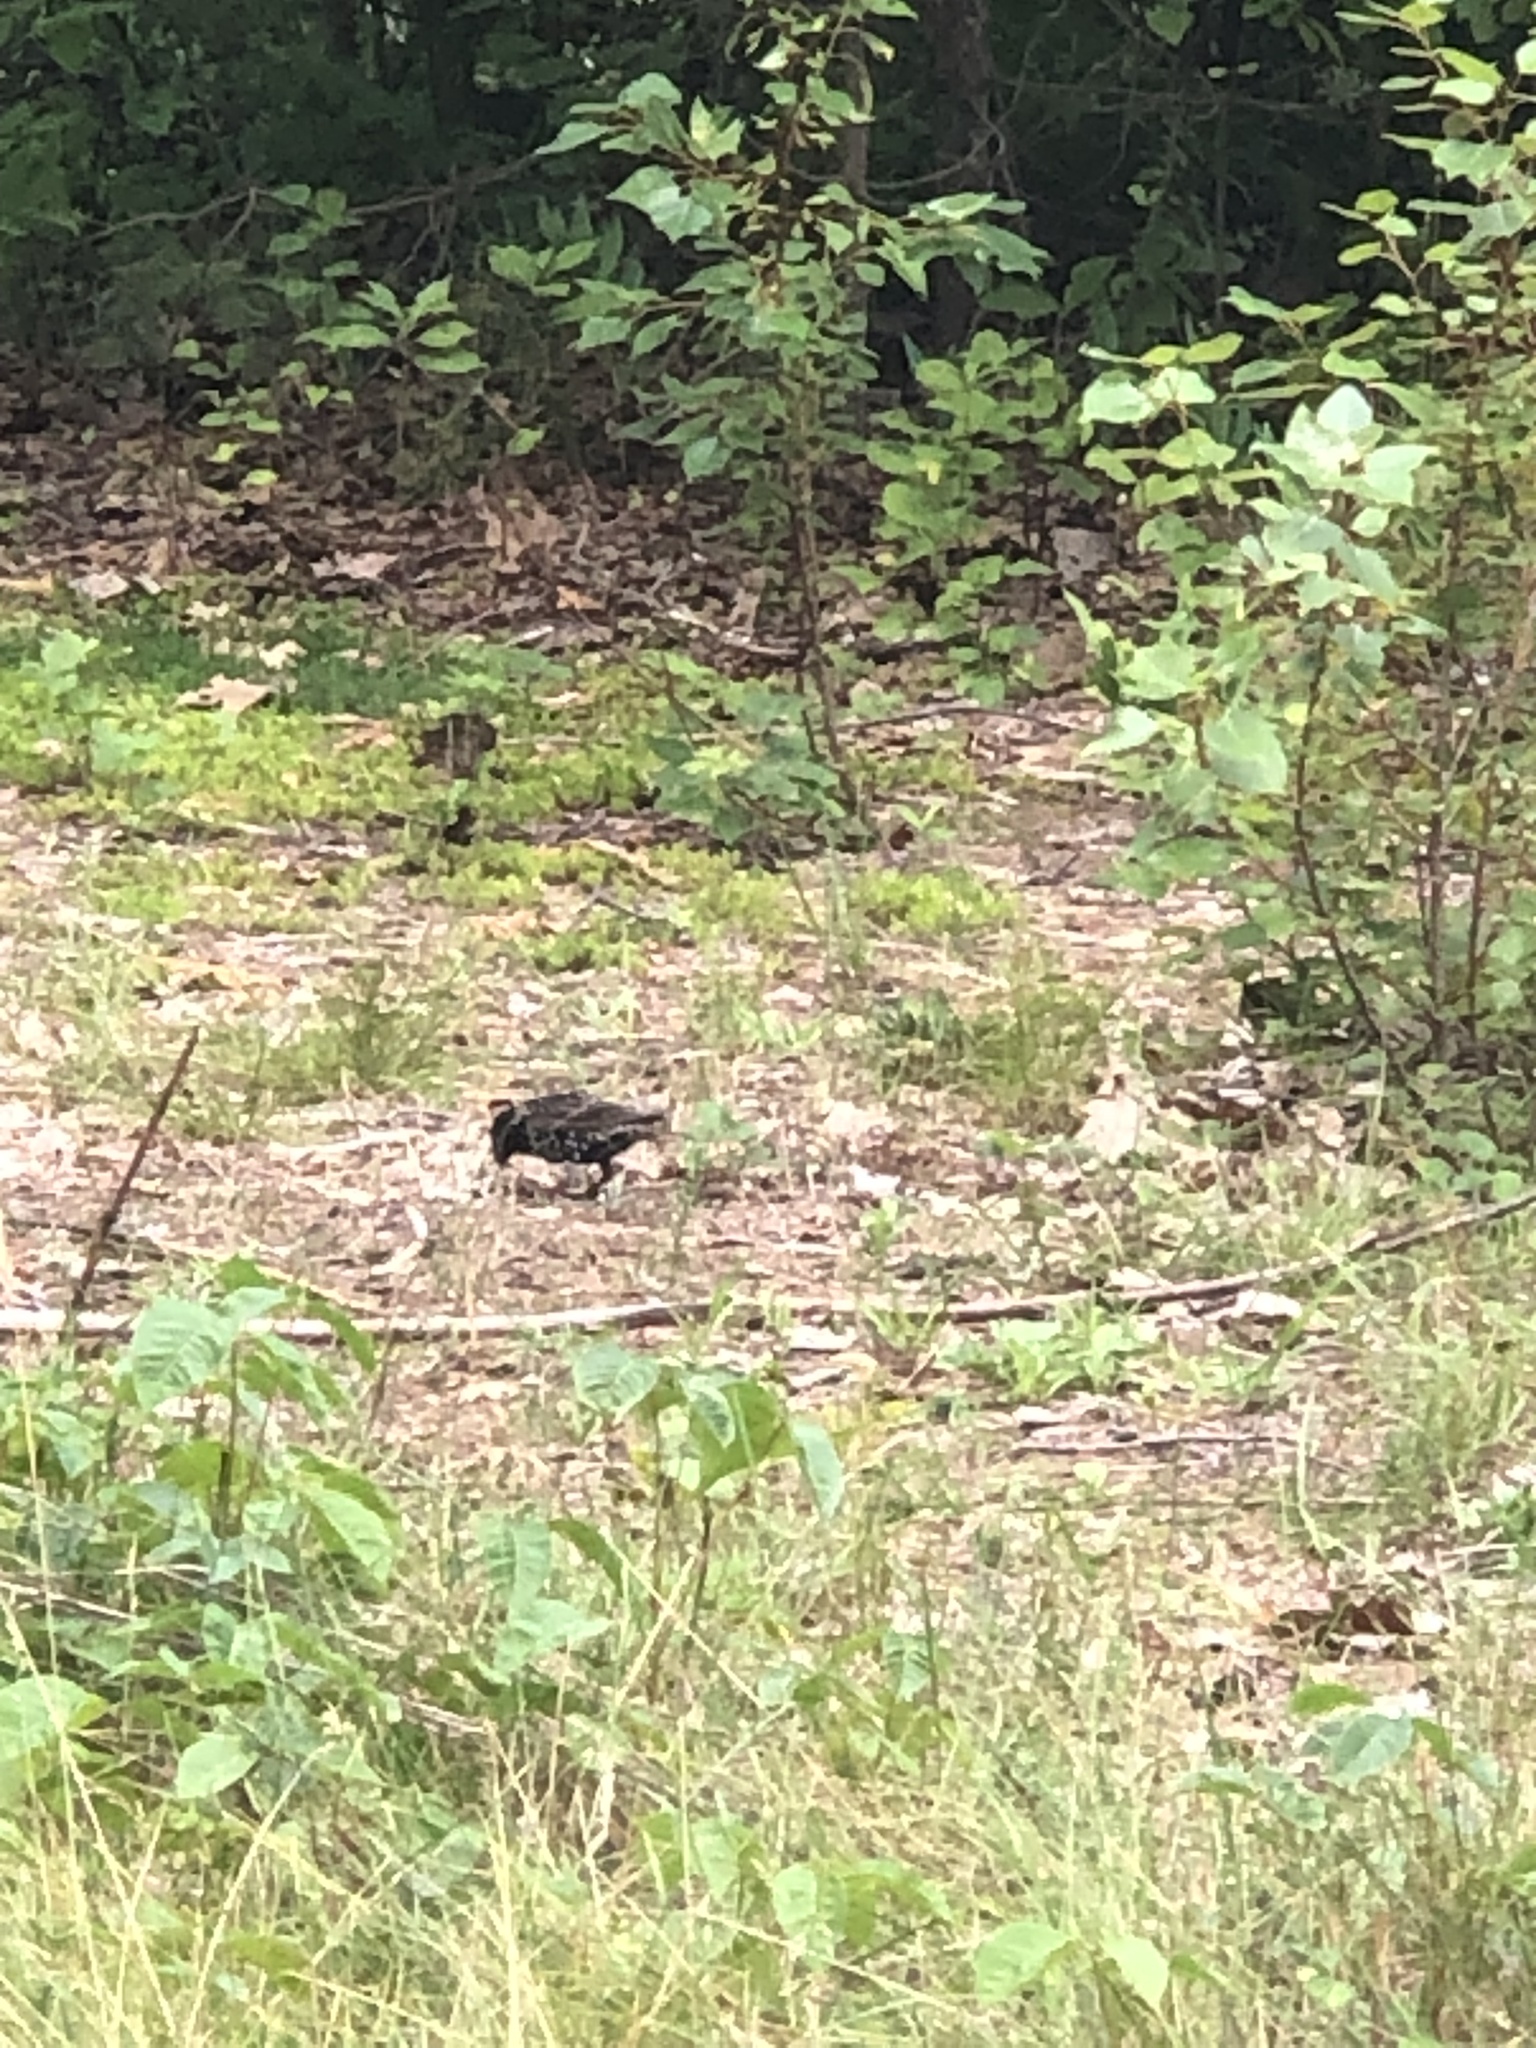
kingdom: Animalia
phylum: Chordata
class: Aves
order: Passeriformes
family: Sturnidae
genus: Sturnus
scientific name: Sturnus vulgaris
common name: Common starling
